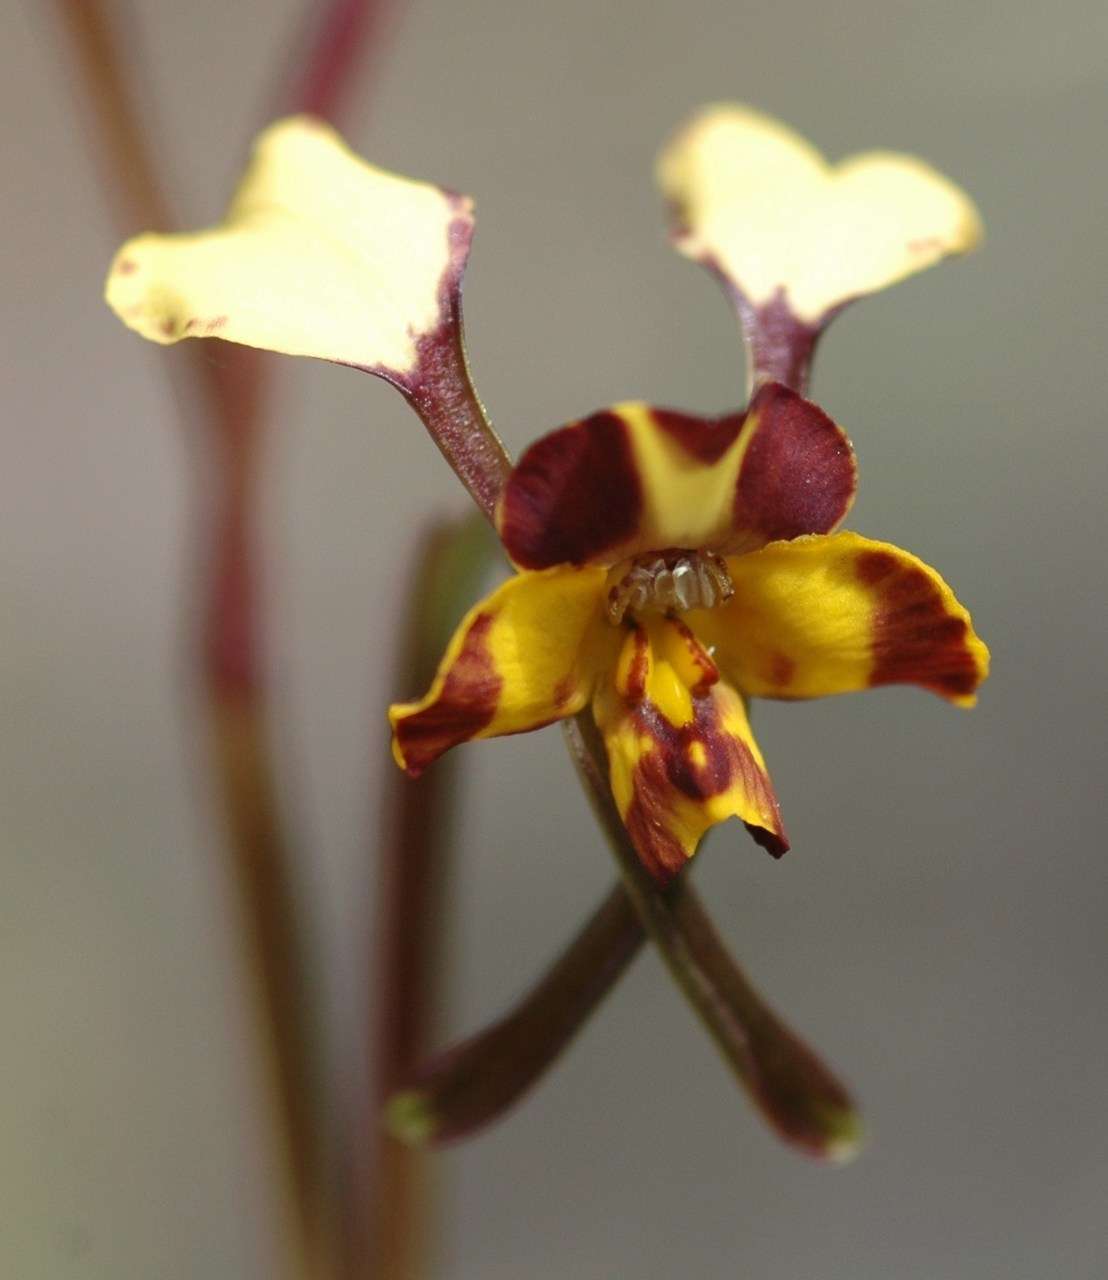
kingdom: Plantae
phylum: Tracheophyta
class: Liliopsida
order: Asparagales
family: Orchidaceae
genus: Diuris
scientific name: Diuris pardina
